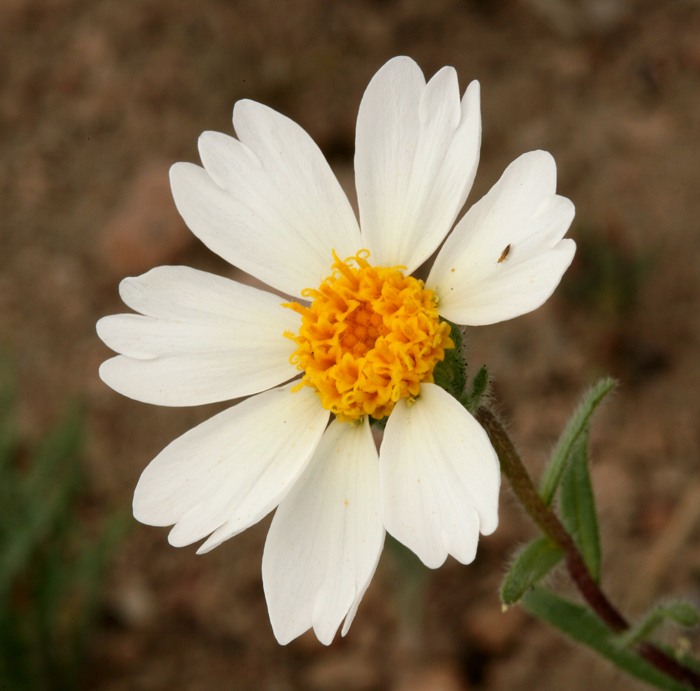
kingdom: Plantae
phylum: Tracheophyta
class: Magnoliopsida
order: Asterales
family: Asteraceae
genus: Layia
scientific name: Layia glandulosa
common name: White layia
